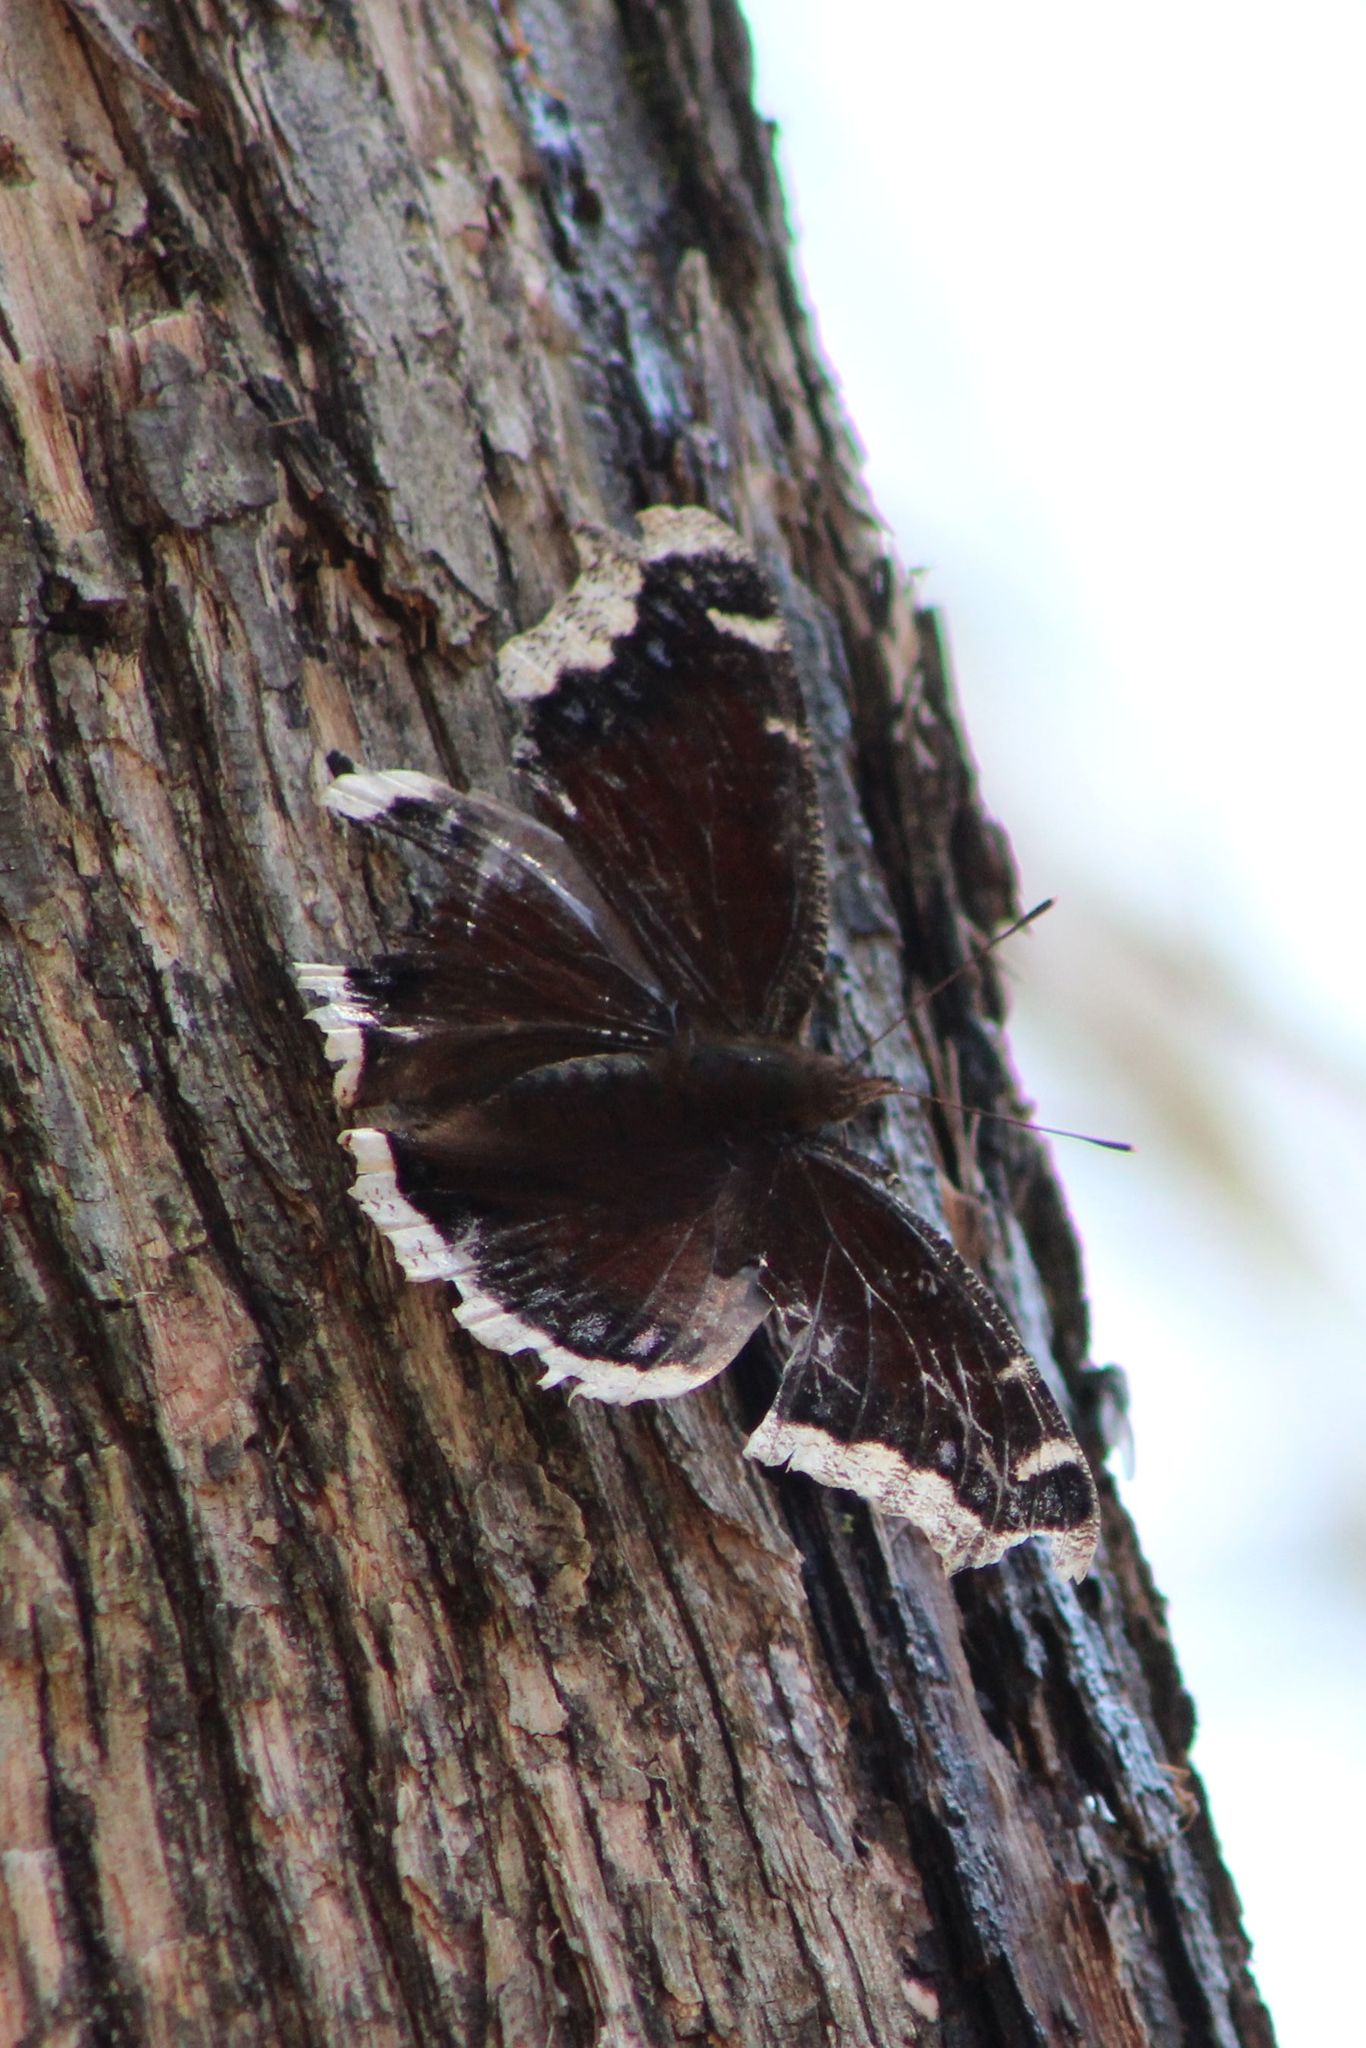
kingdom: Animalia
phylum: Arthropoda
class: Insecta
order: Lepidoptera
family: Nymphalidae
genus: Nymphalis
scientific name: Nymphalis antiopa
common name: Camberwell beauty
